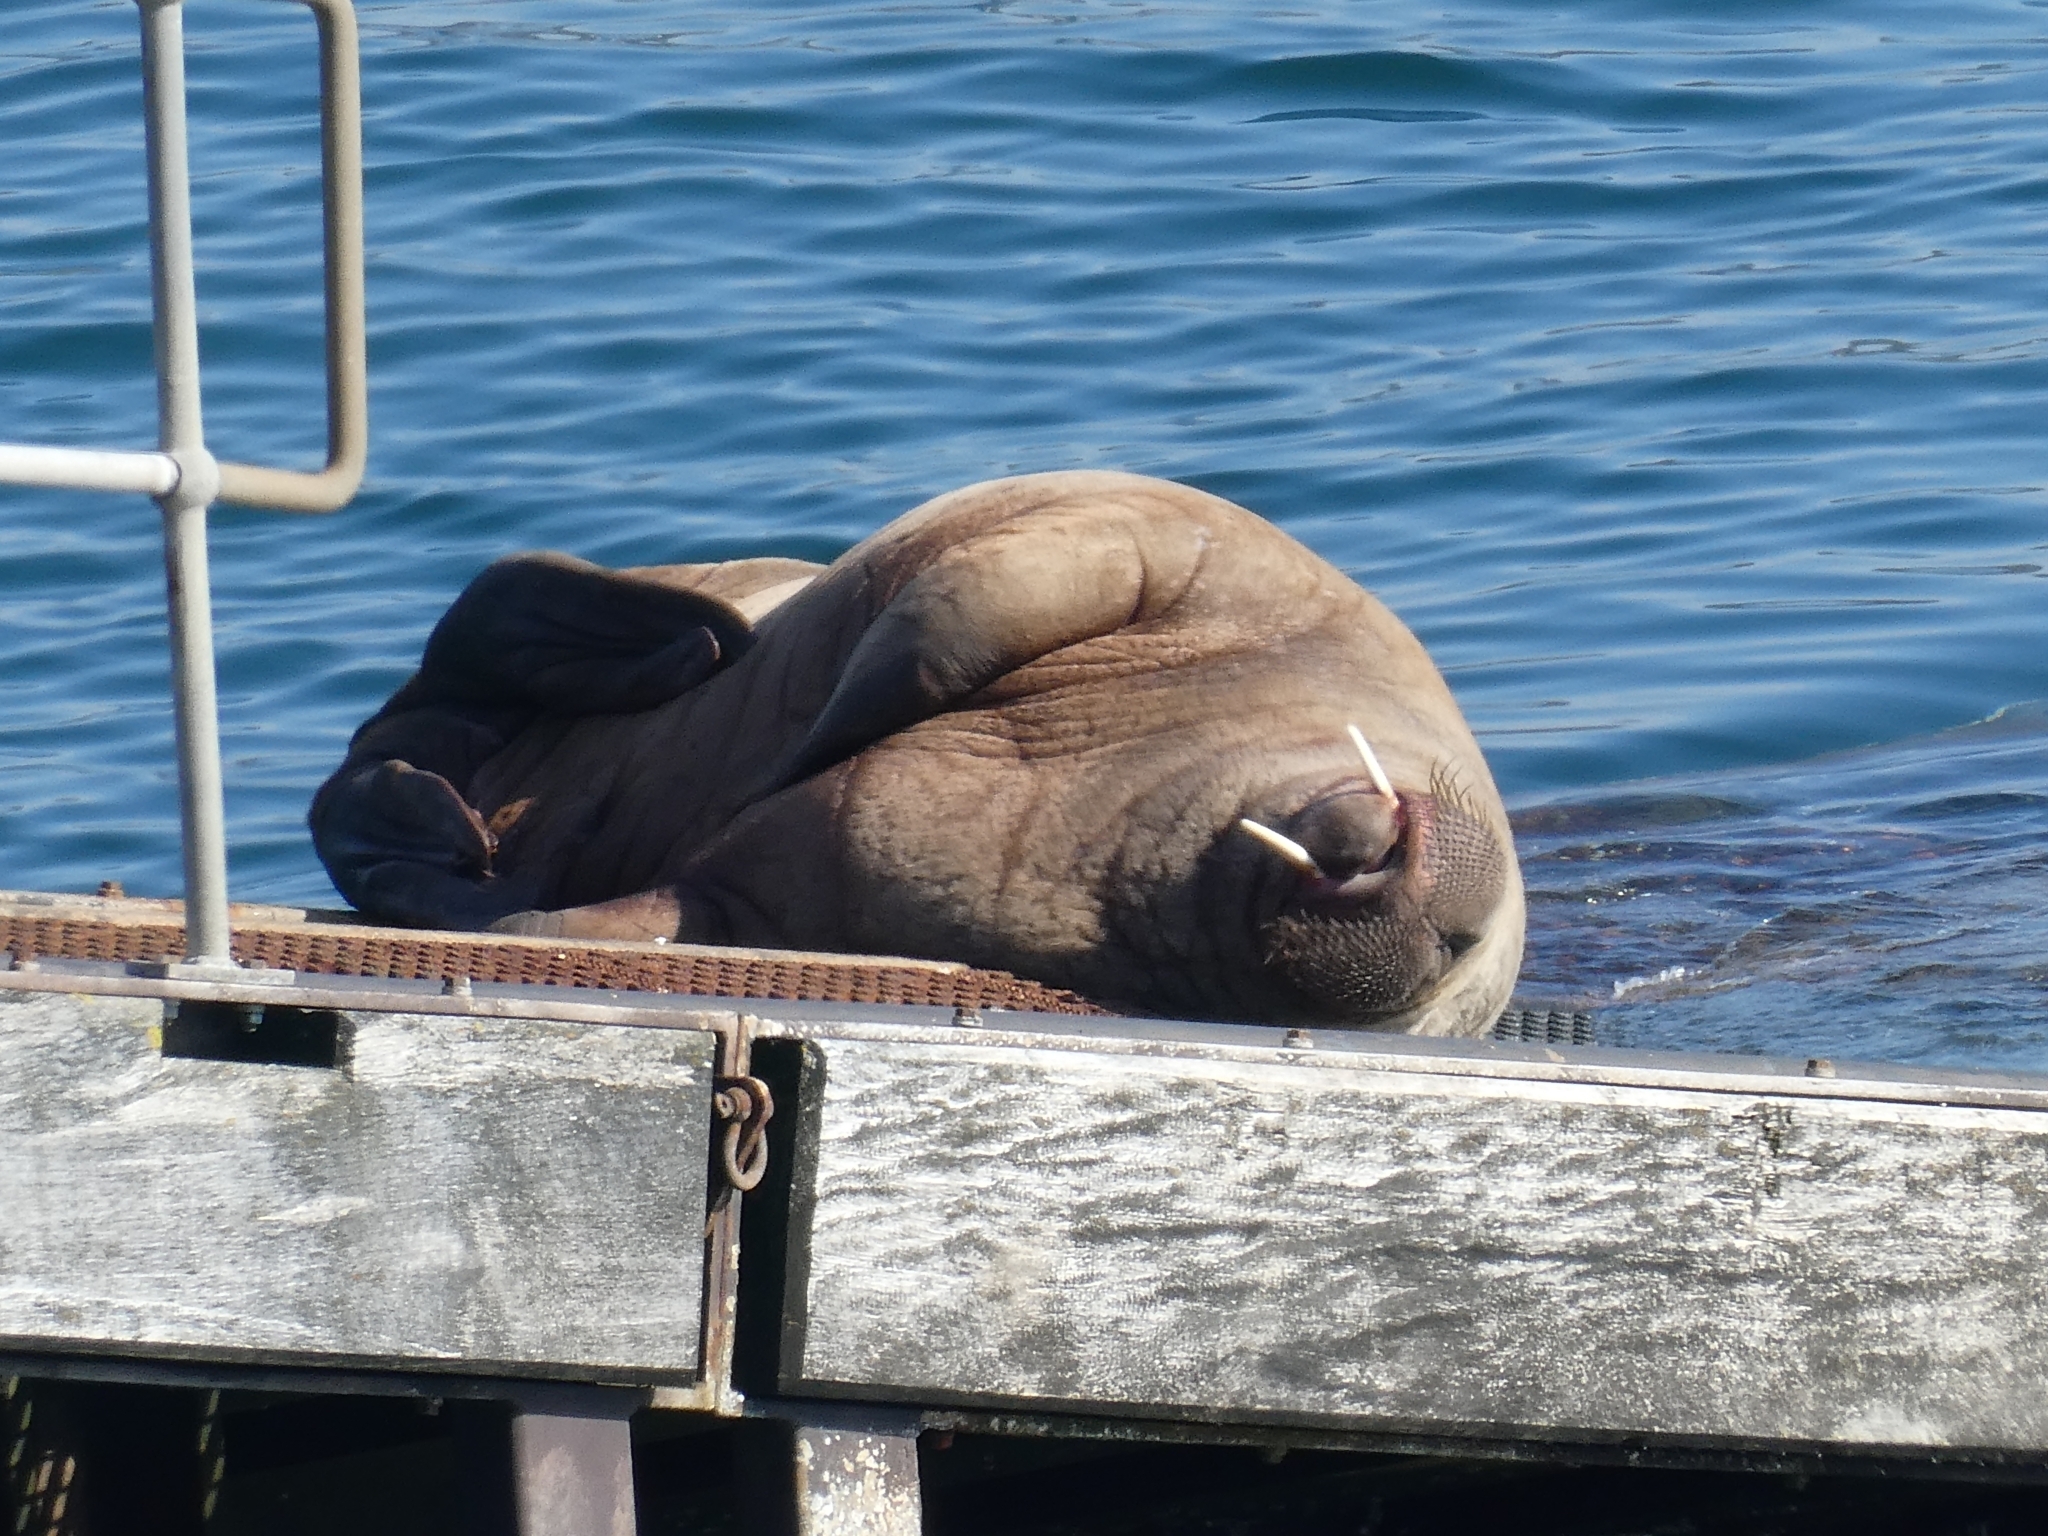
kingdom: Animalia
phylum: Chordata
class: Mammalia
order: Carnivora
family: Odobenidae
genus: Odobenus
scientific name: Odobenus rosmarus
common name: Walrus
